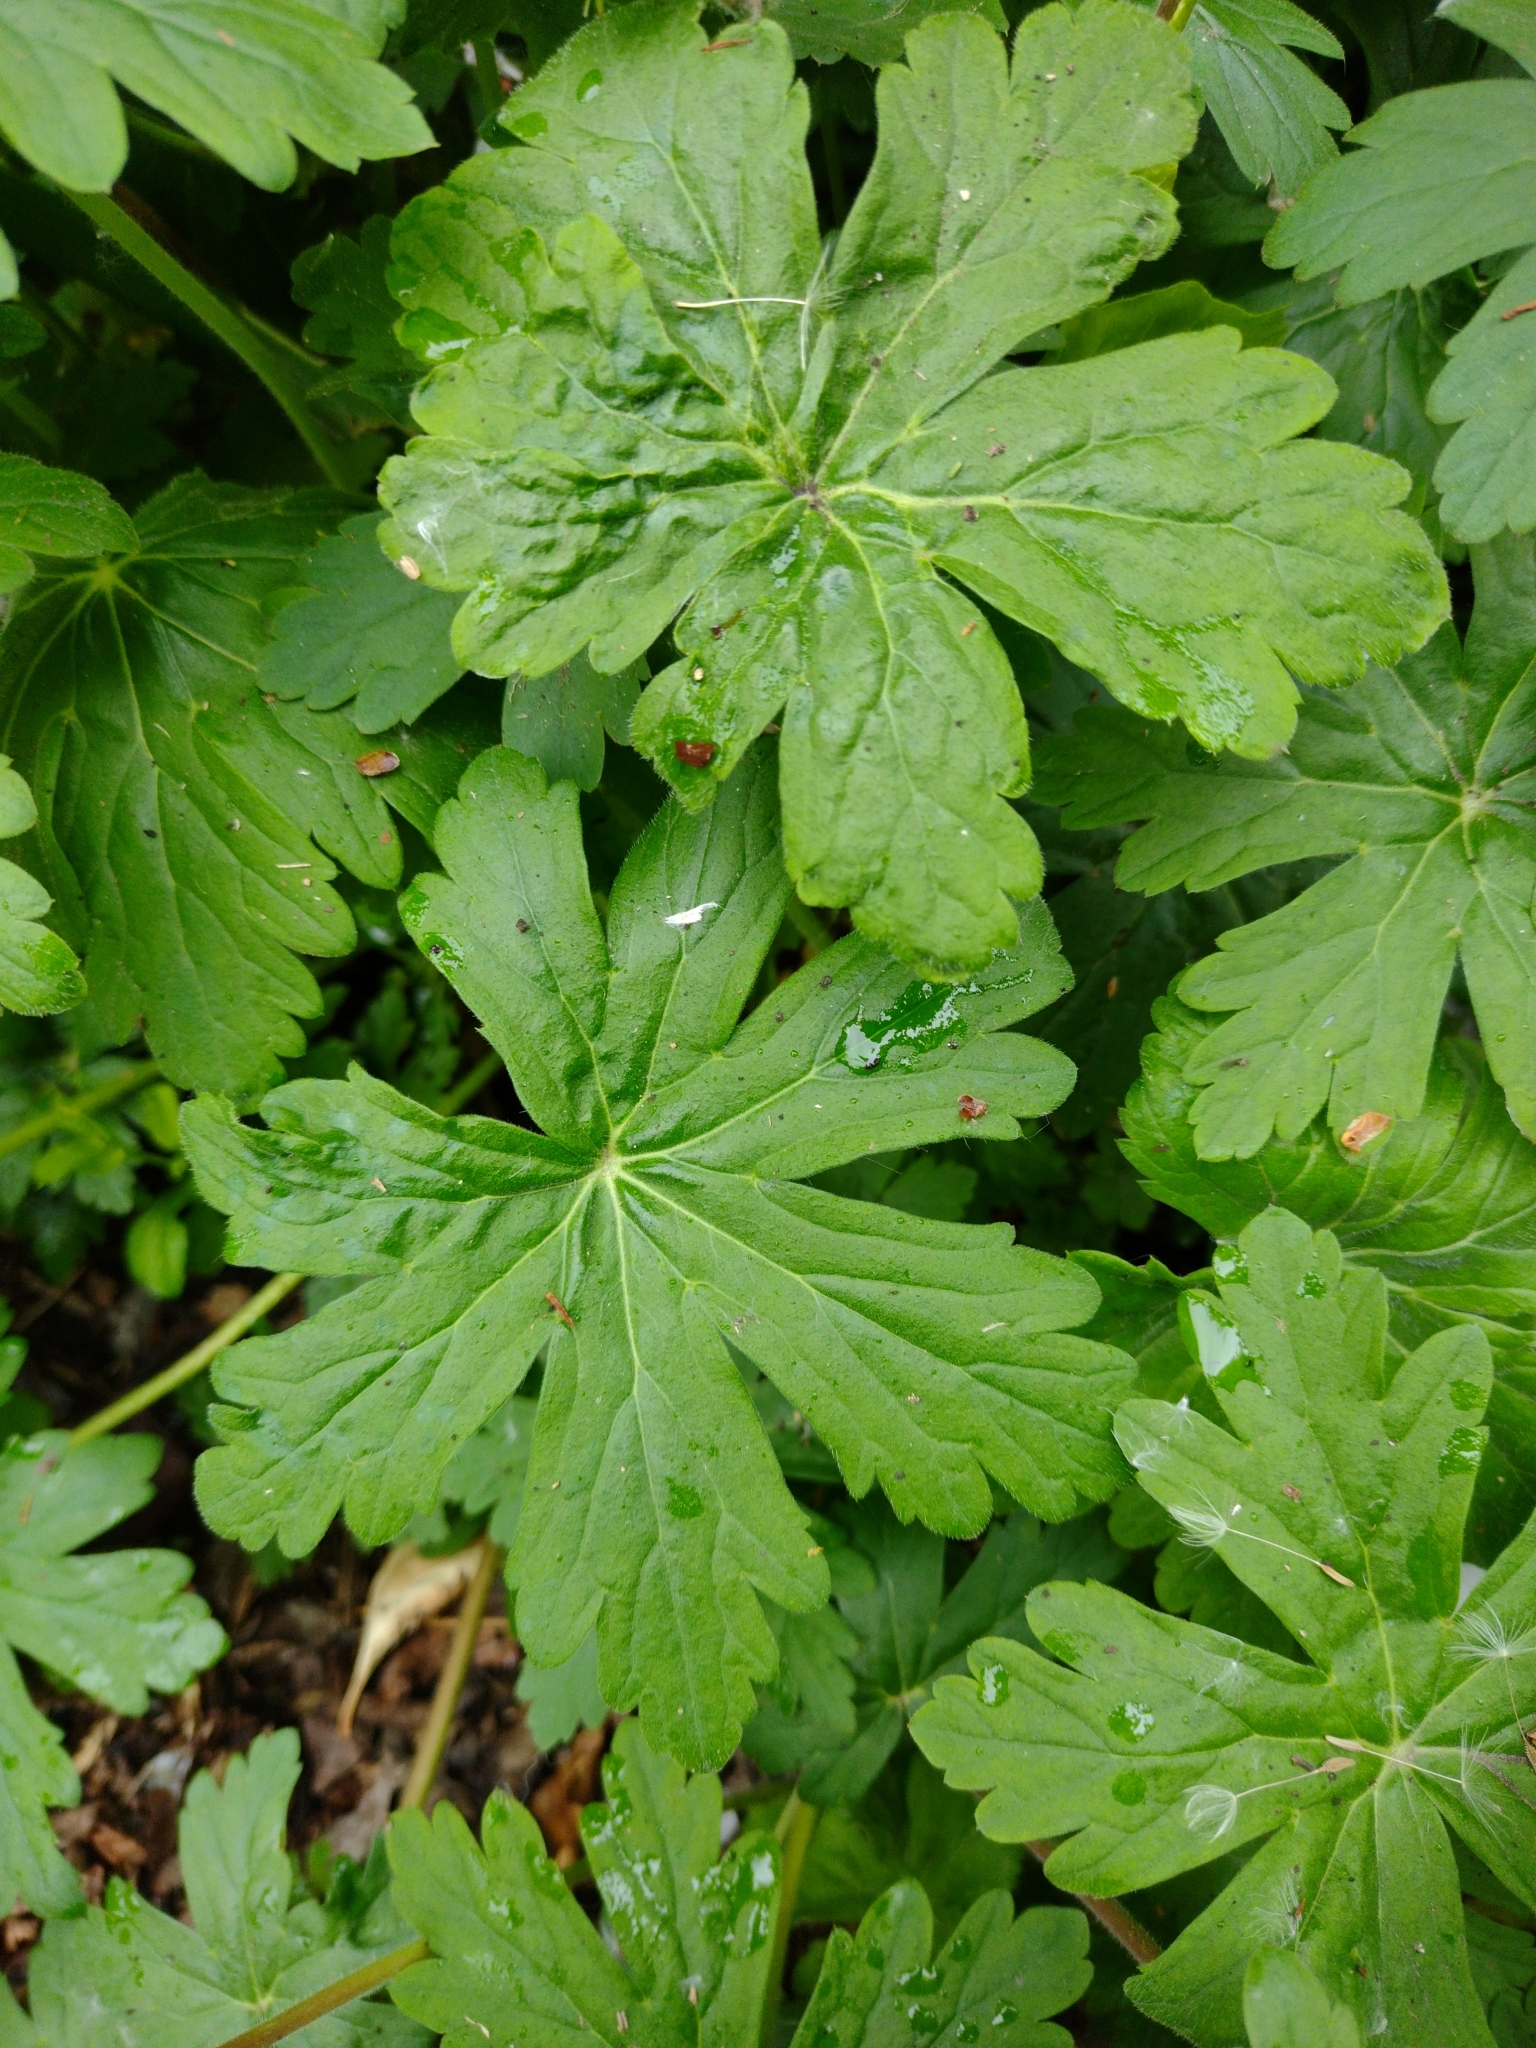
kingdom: Plantae
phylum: Tracheophyta
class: Magnoliopsida
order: Geraniales
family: Geraniaceae
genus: Geranium
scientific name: Geranium macrorrhizum
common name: Rock crane's-bill
